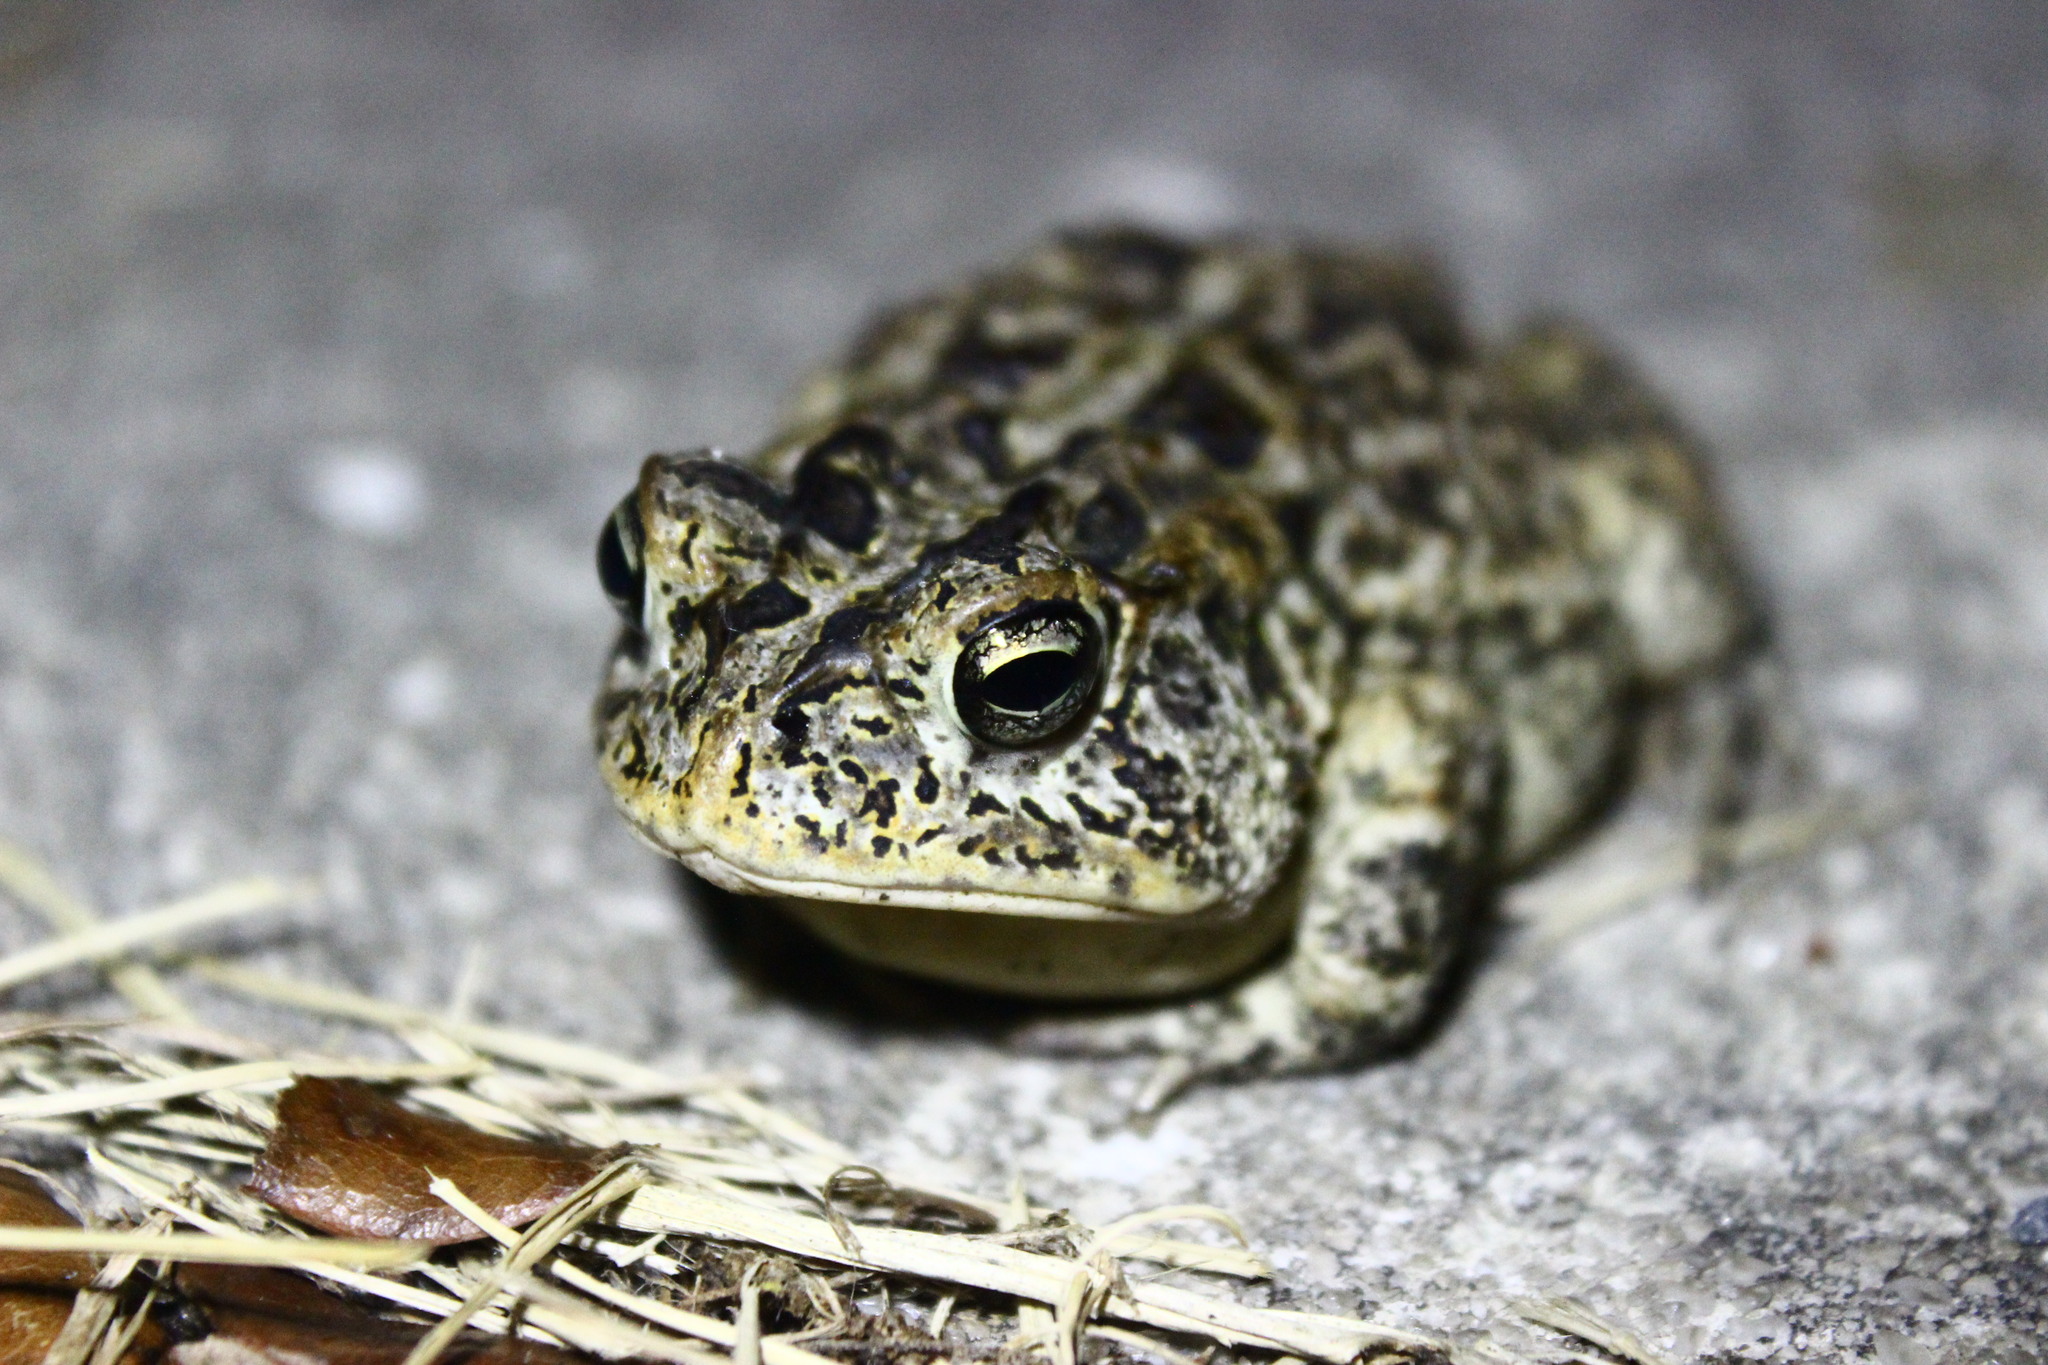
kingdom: Animalia
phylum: Chordata
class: Amphibia
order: Anura
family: Bufonidae
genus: Anaxyrus
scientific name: Anaxyrus terrestris
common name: Southern toad
